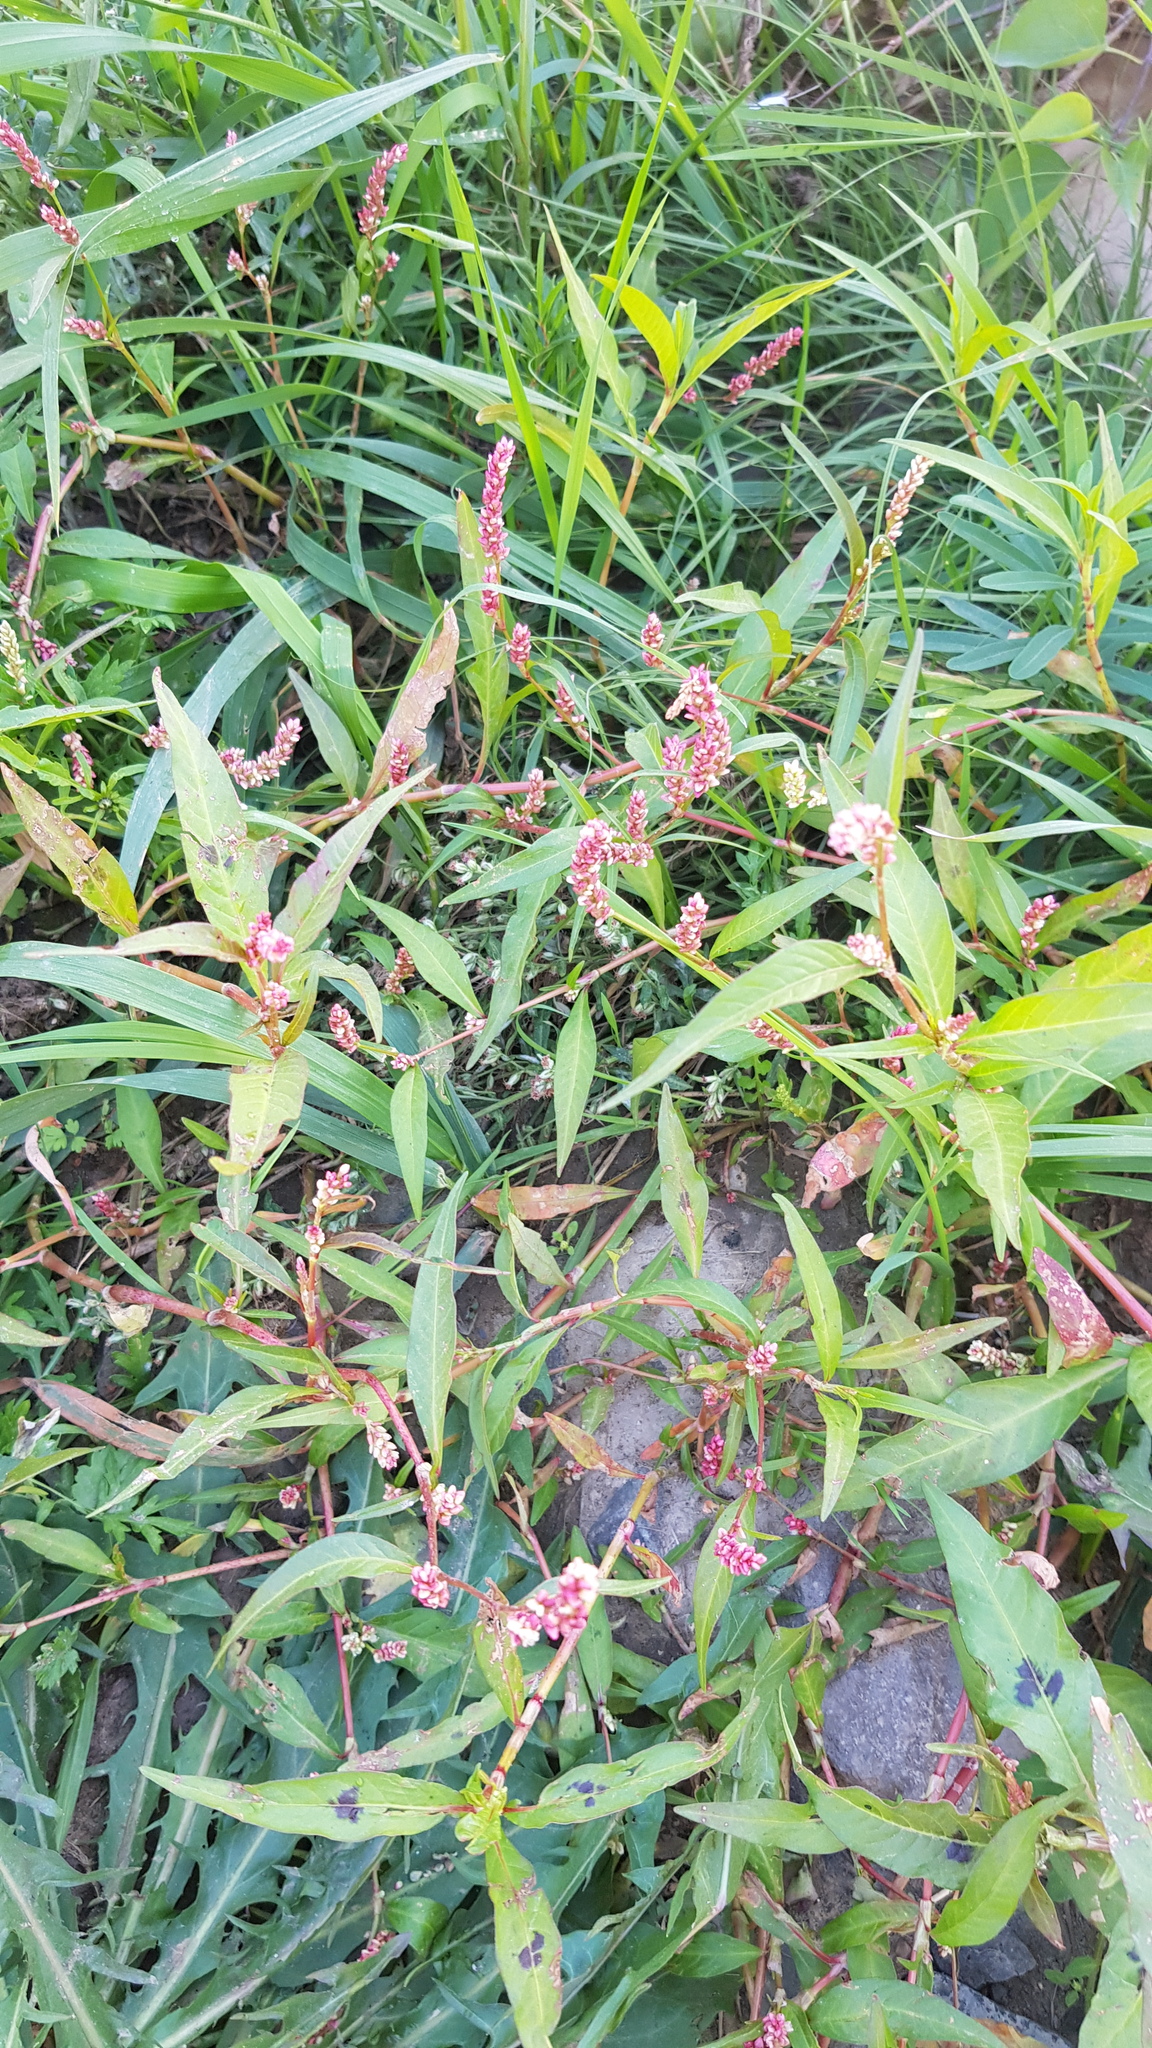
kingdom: Plantae
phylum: Tracheophyta
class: Magnoliopsida
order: Caryophyllales
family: Polygonaceae
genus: Persicaria
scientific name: Persicaria lapathifolia
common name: Curlytop knotweed
